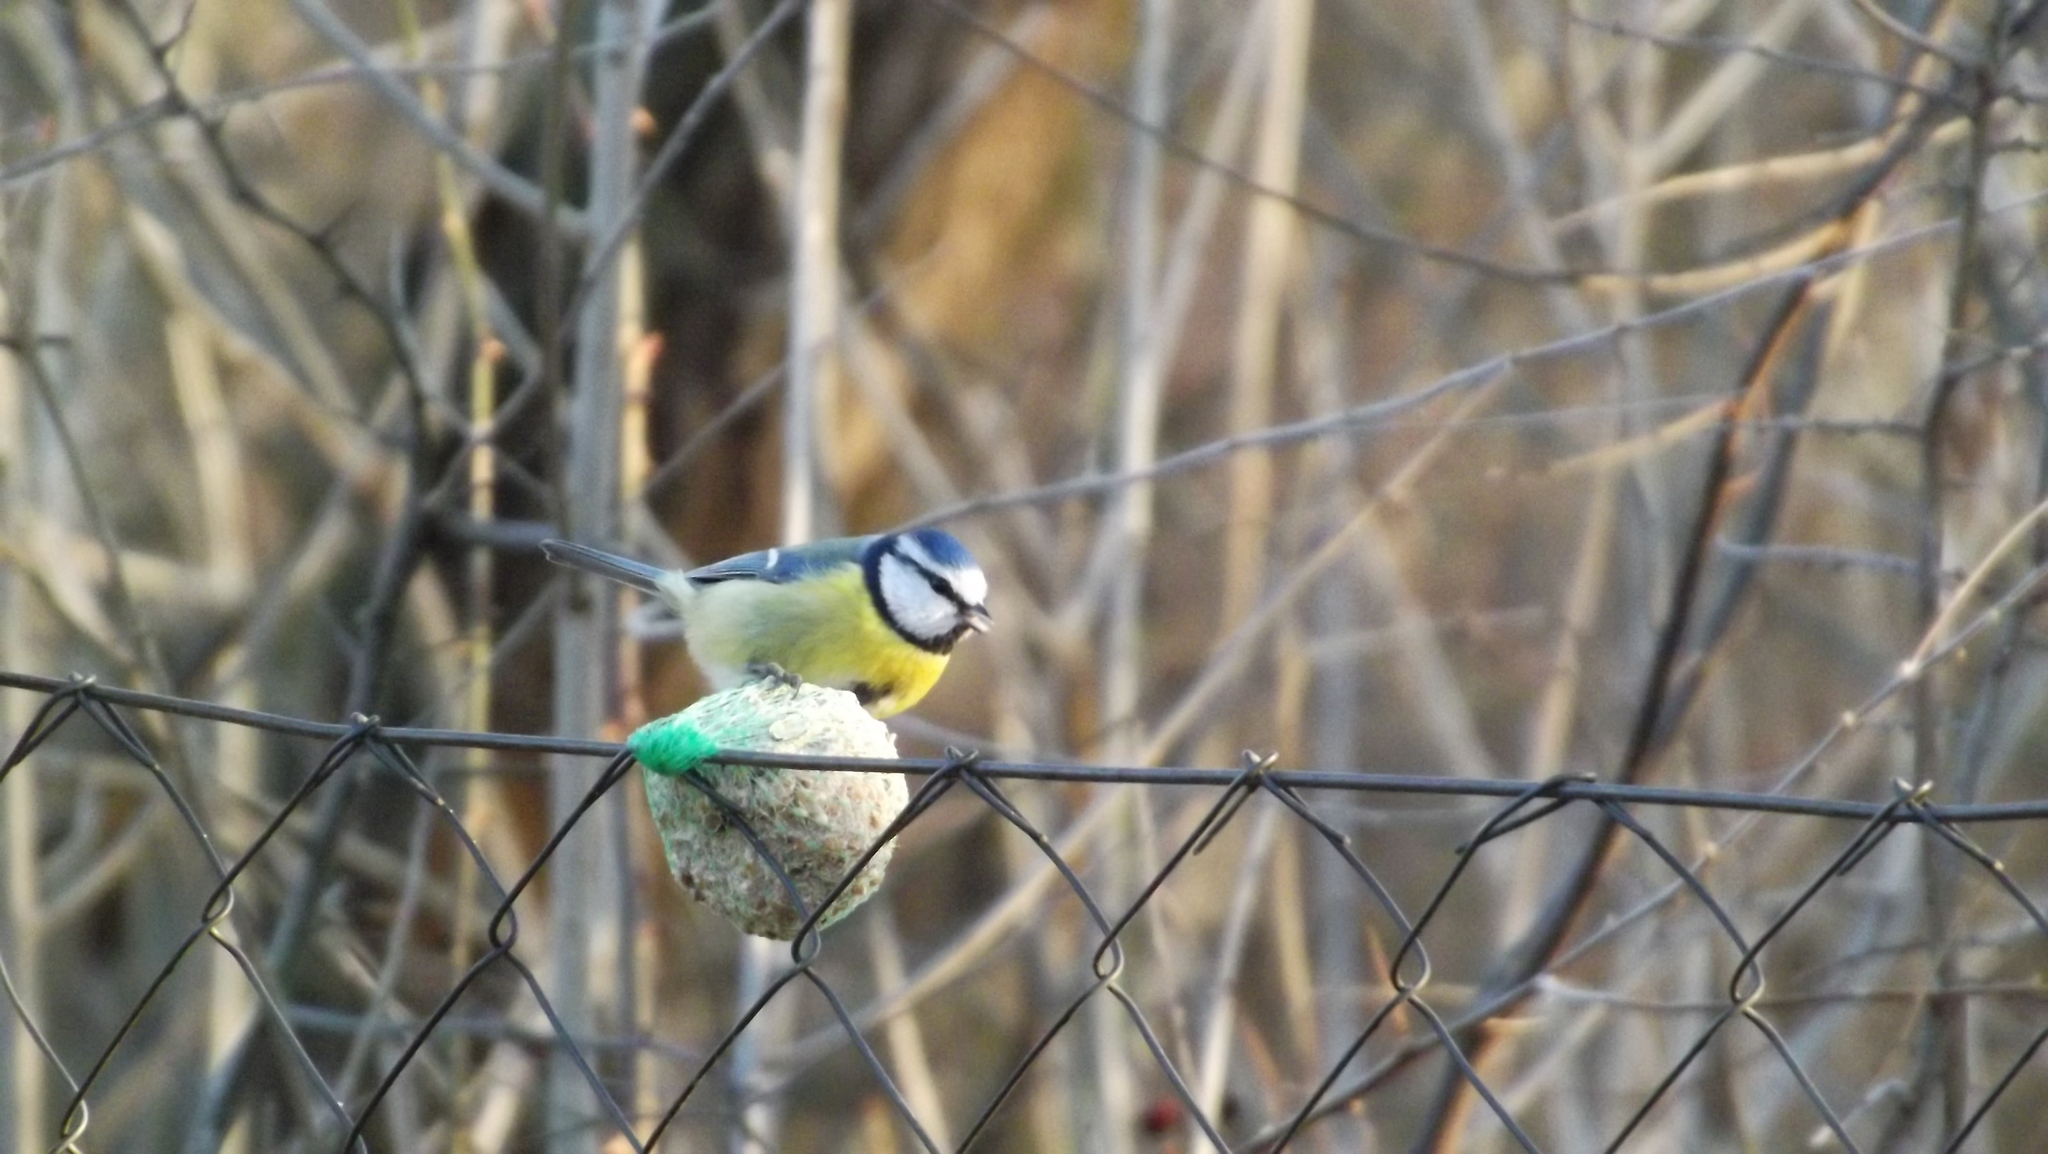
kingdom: Animalia
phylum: Chordata
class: Aves
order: Passeriformes
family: Paridae
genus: Cyanistes
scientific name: Cyanistes caeruleus
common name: Eurasian blue tit
